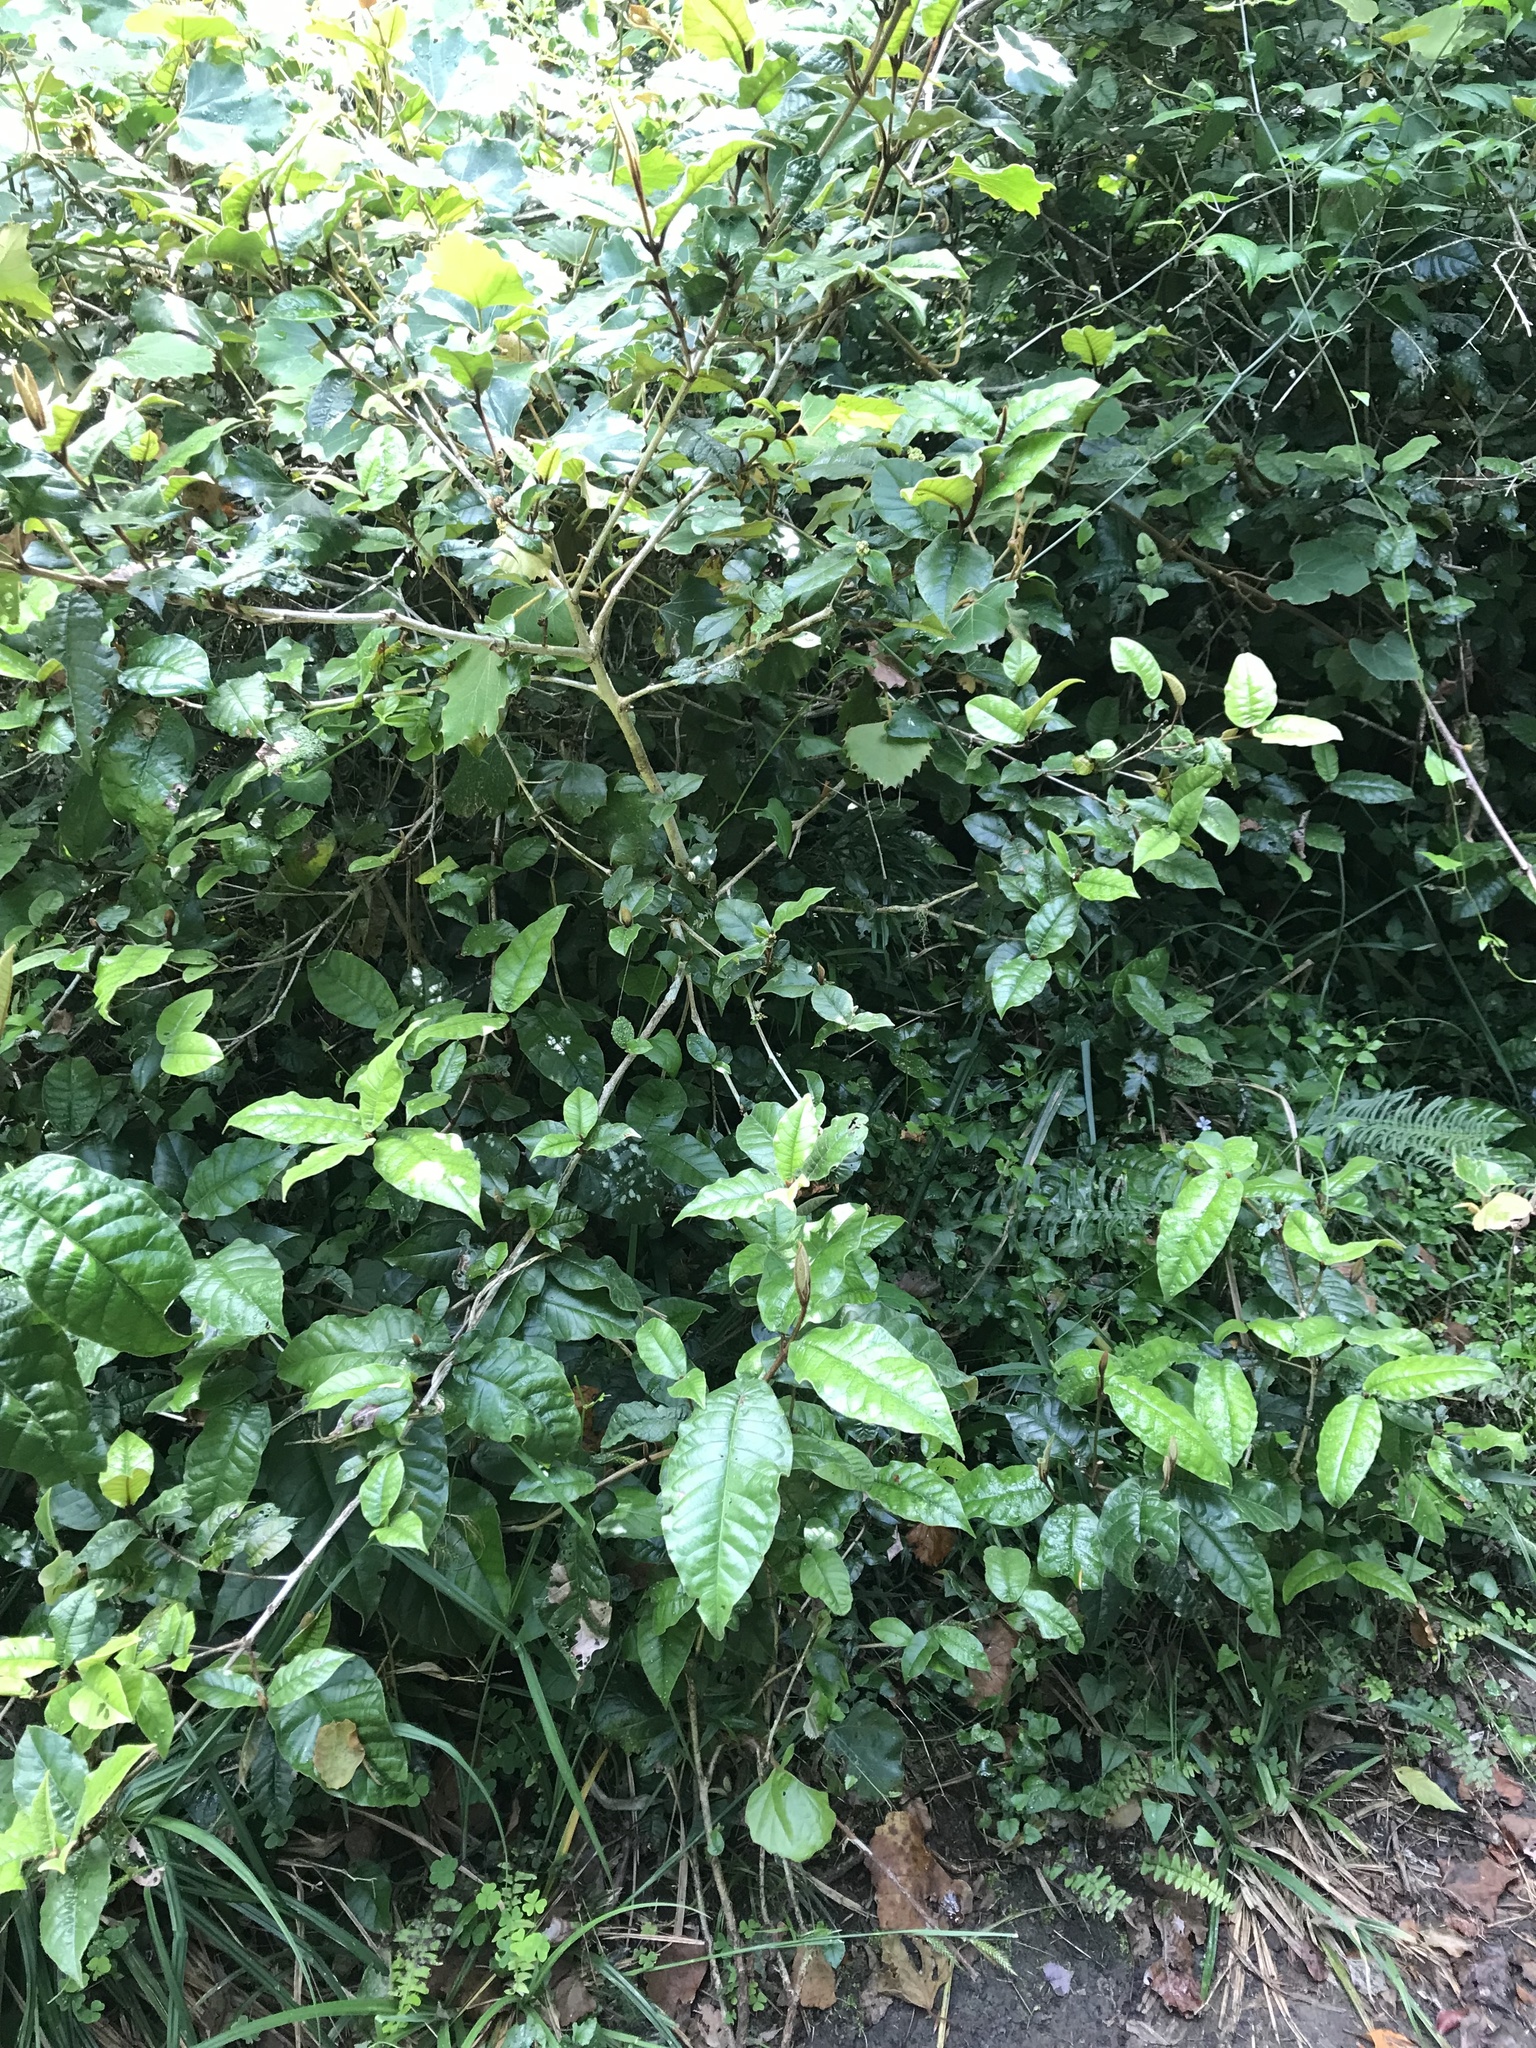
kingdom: Plantae
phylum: Tracheophyta
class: Magnoliopsida
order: Saxifragales
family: Hamamelidaceae
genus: Trichocladus
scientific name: Trichocladus crinitus
